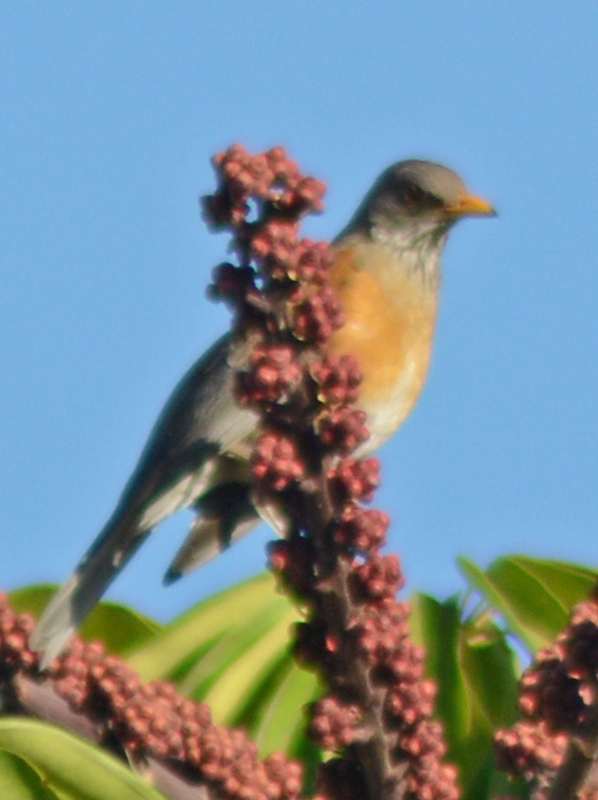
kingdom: Animalia
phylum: Chordata
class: Aves
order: Passeriformes
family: Turdidae
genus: Turdus
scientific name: Turdus rufopalliatus
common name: Rufous-backed robin
